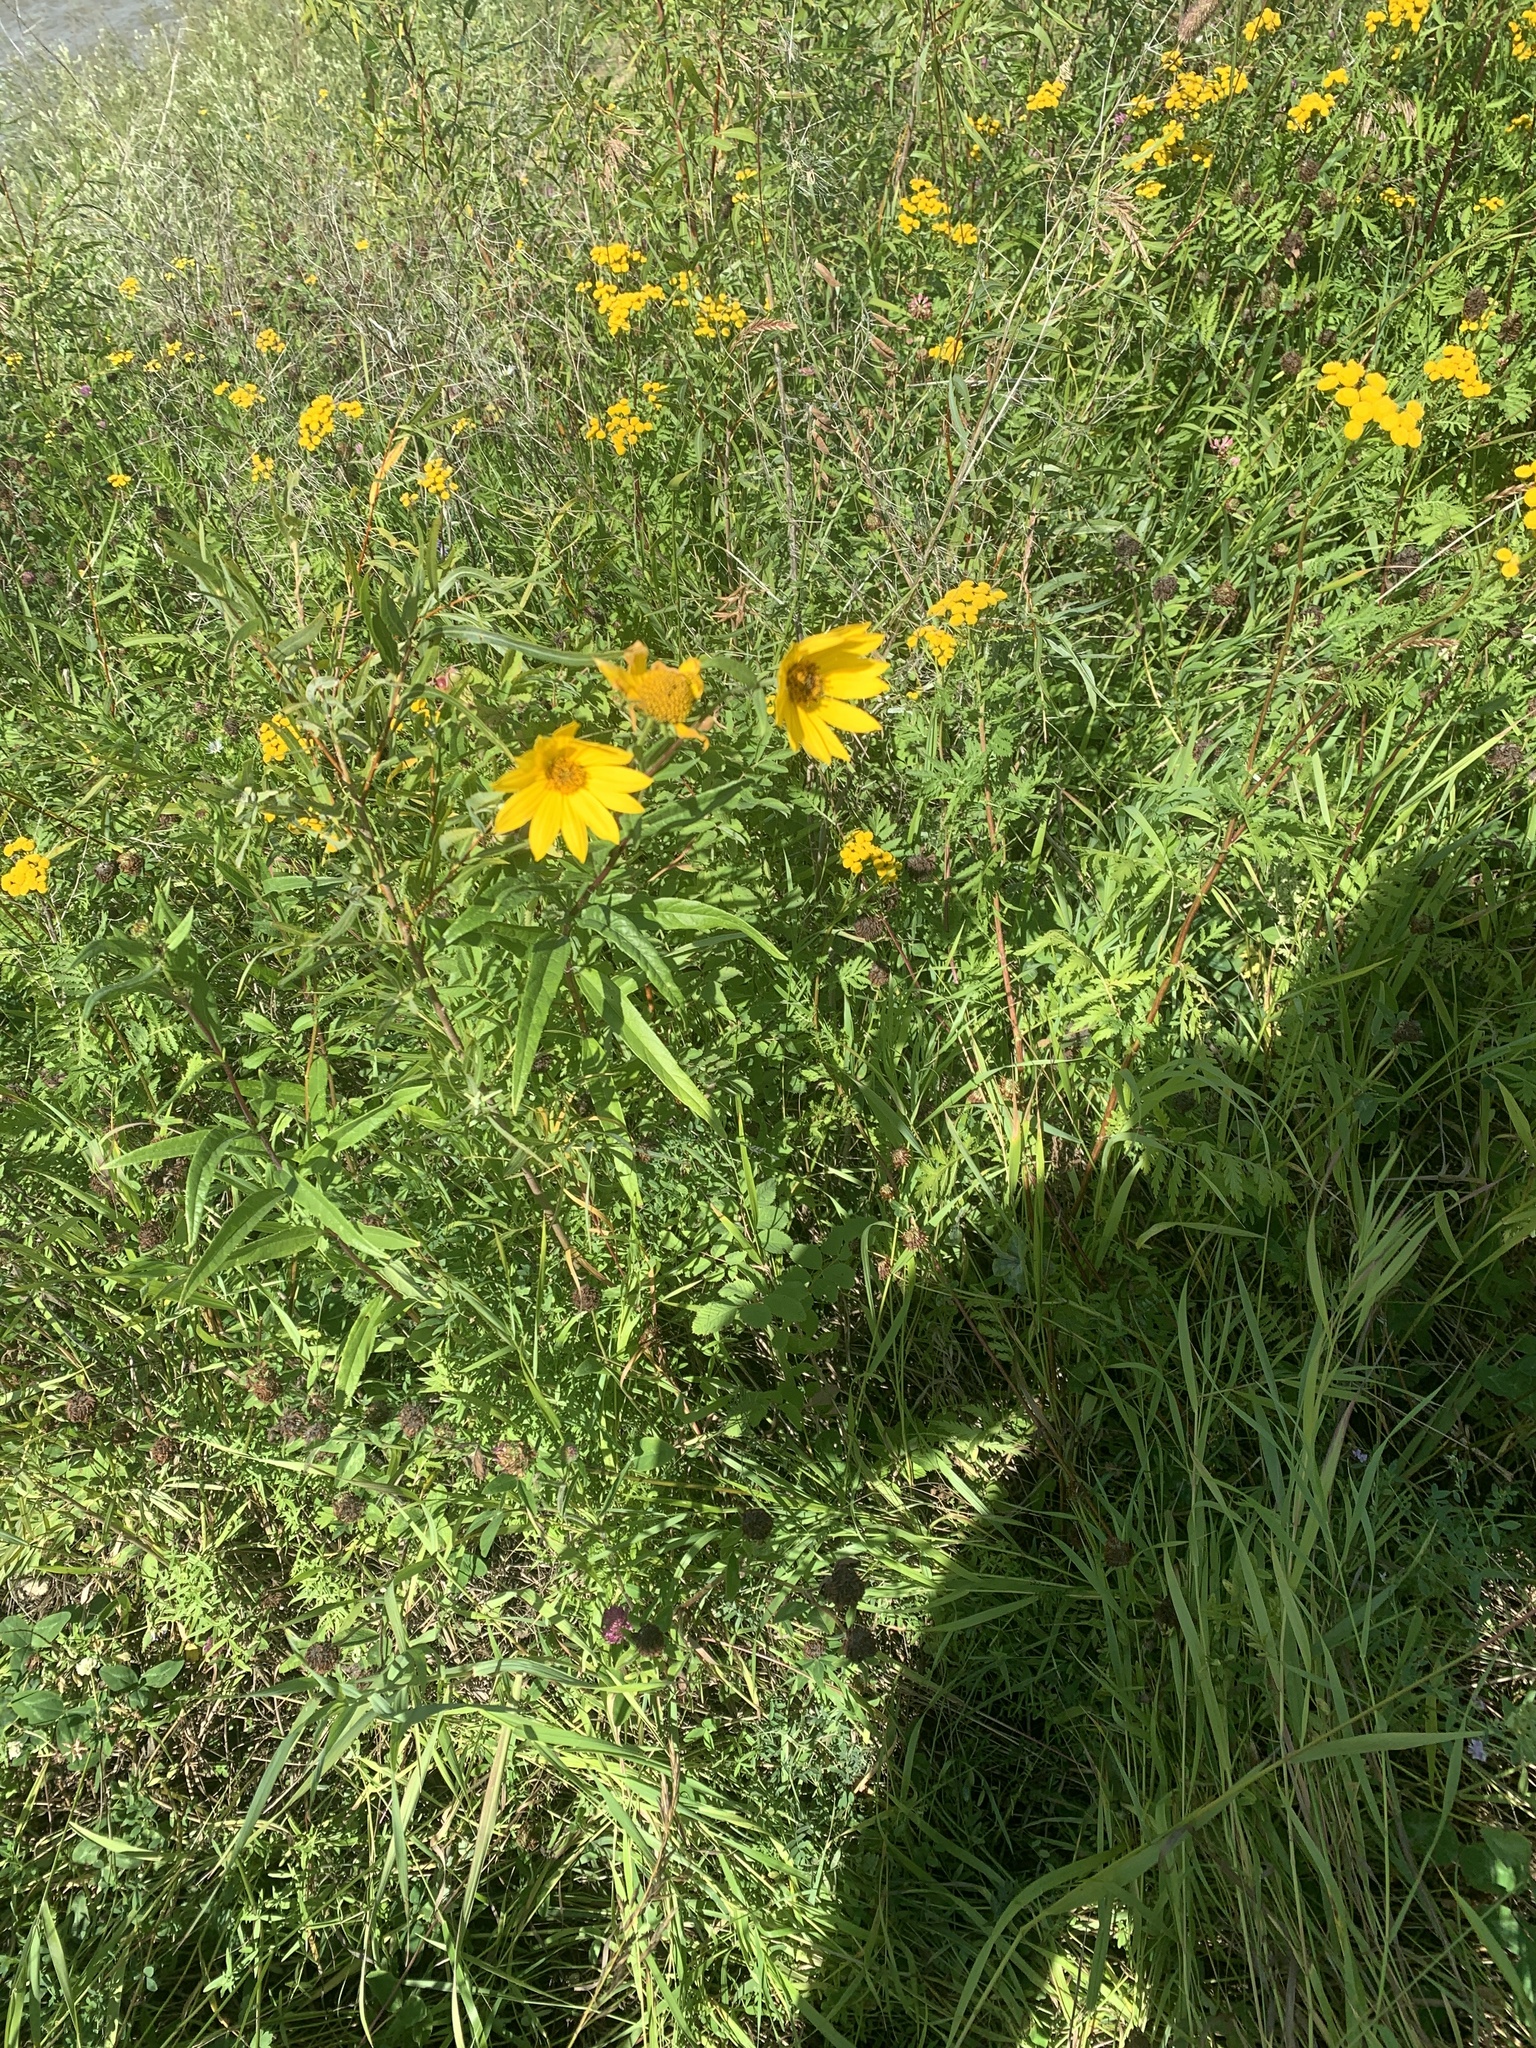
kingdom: Plantae
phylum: Tracheophyta
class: Magnoliopsida
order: Asterales
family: Asteraceae
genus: Helianthus
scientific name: Helianthus nuttallii
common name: Nuttall's sunflower
